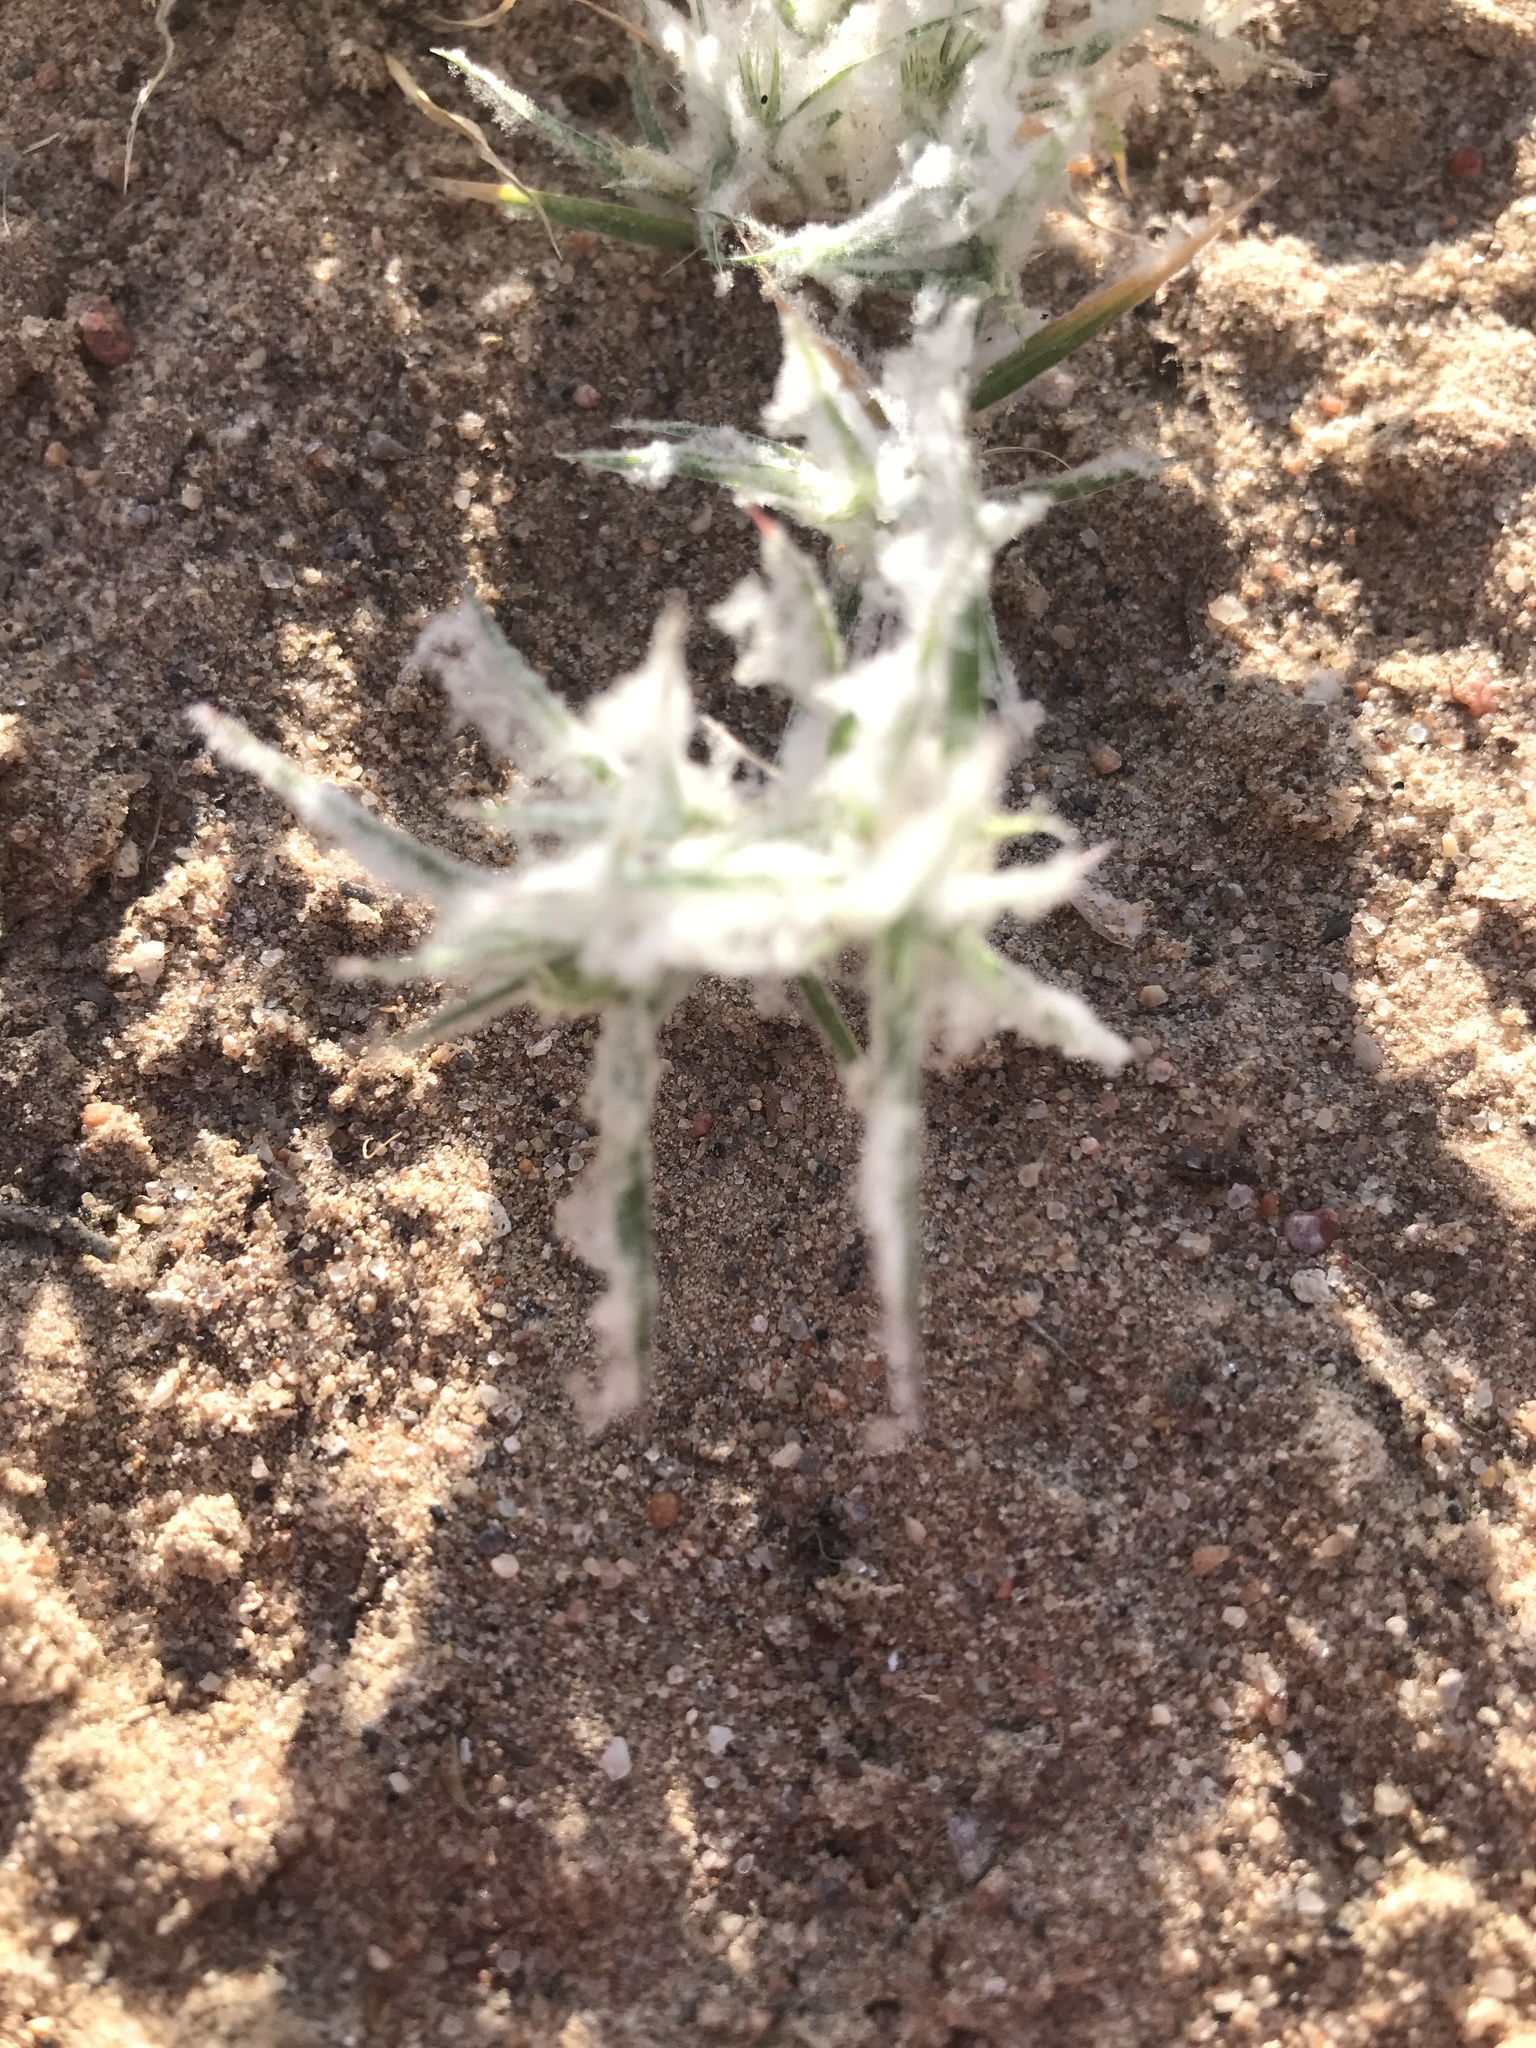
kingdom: Plantae
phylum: Tracheophyta
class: Liliopsida
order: Poales
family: Poaceae
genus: Dasyochloa
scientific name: Dasyochloa pulchella
